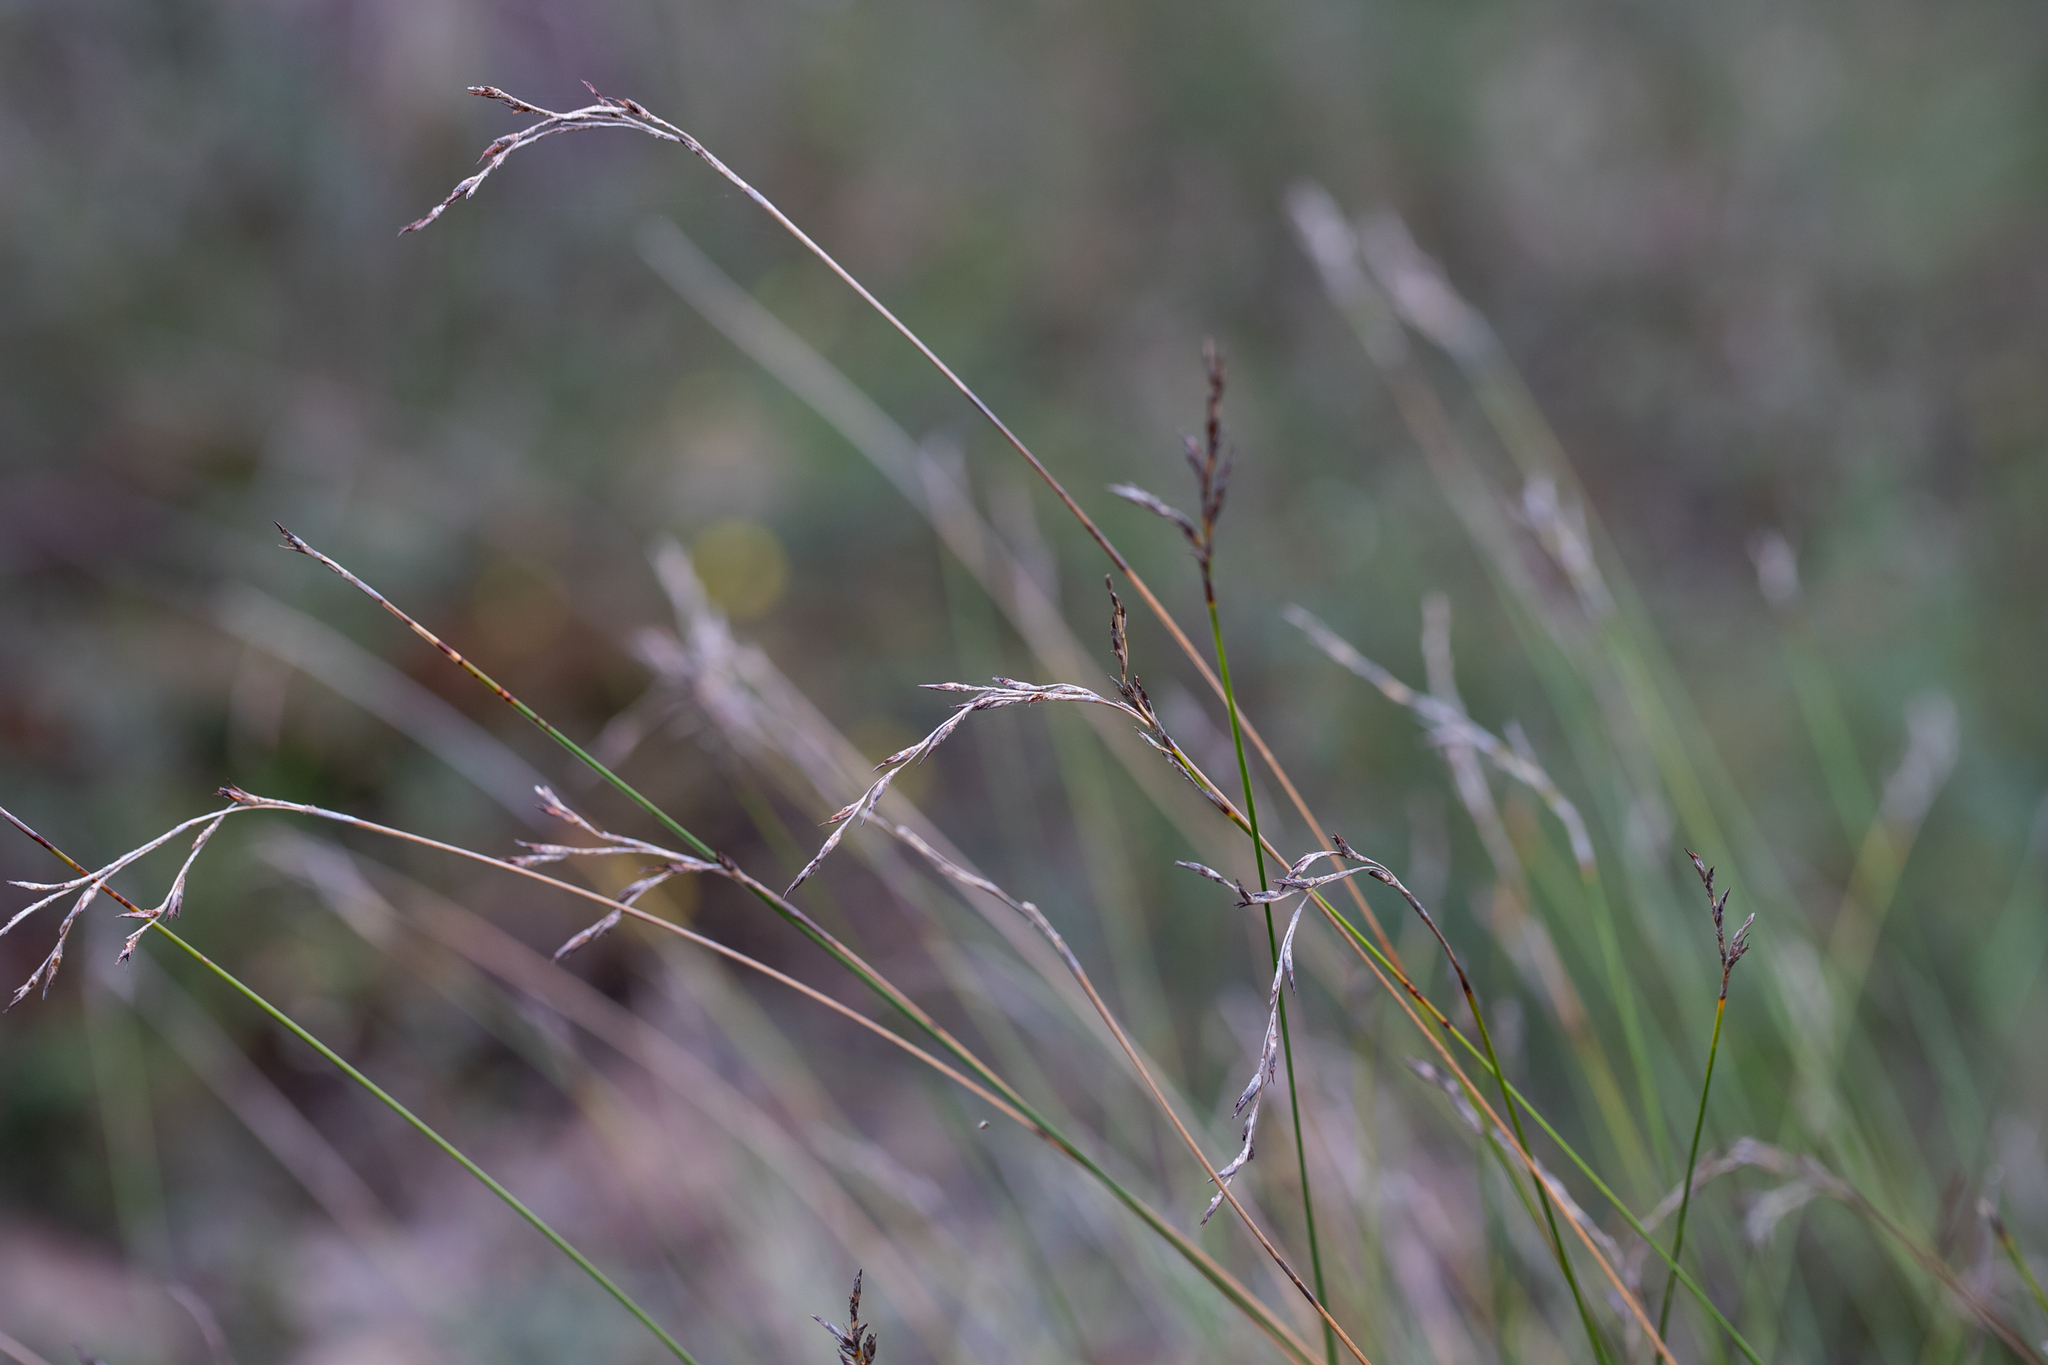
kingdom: Plantae
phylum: Tracheophyta
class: Liliopsida
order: Poales
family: Cyperaceae
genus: Lepidosperma
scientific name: Lepidosperma semiteres
